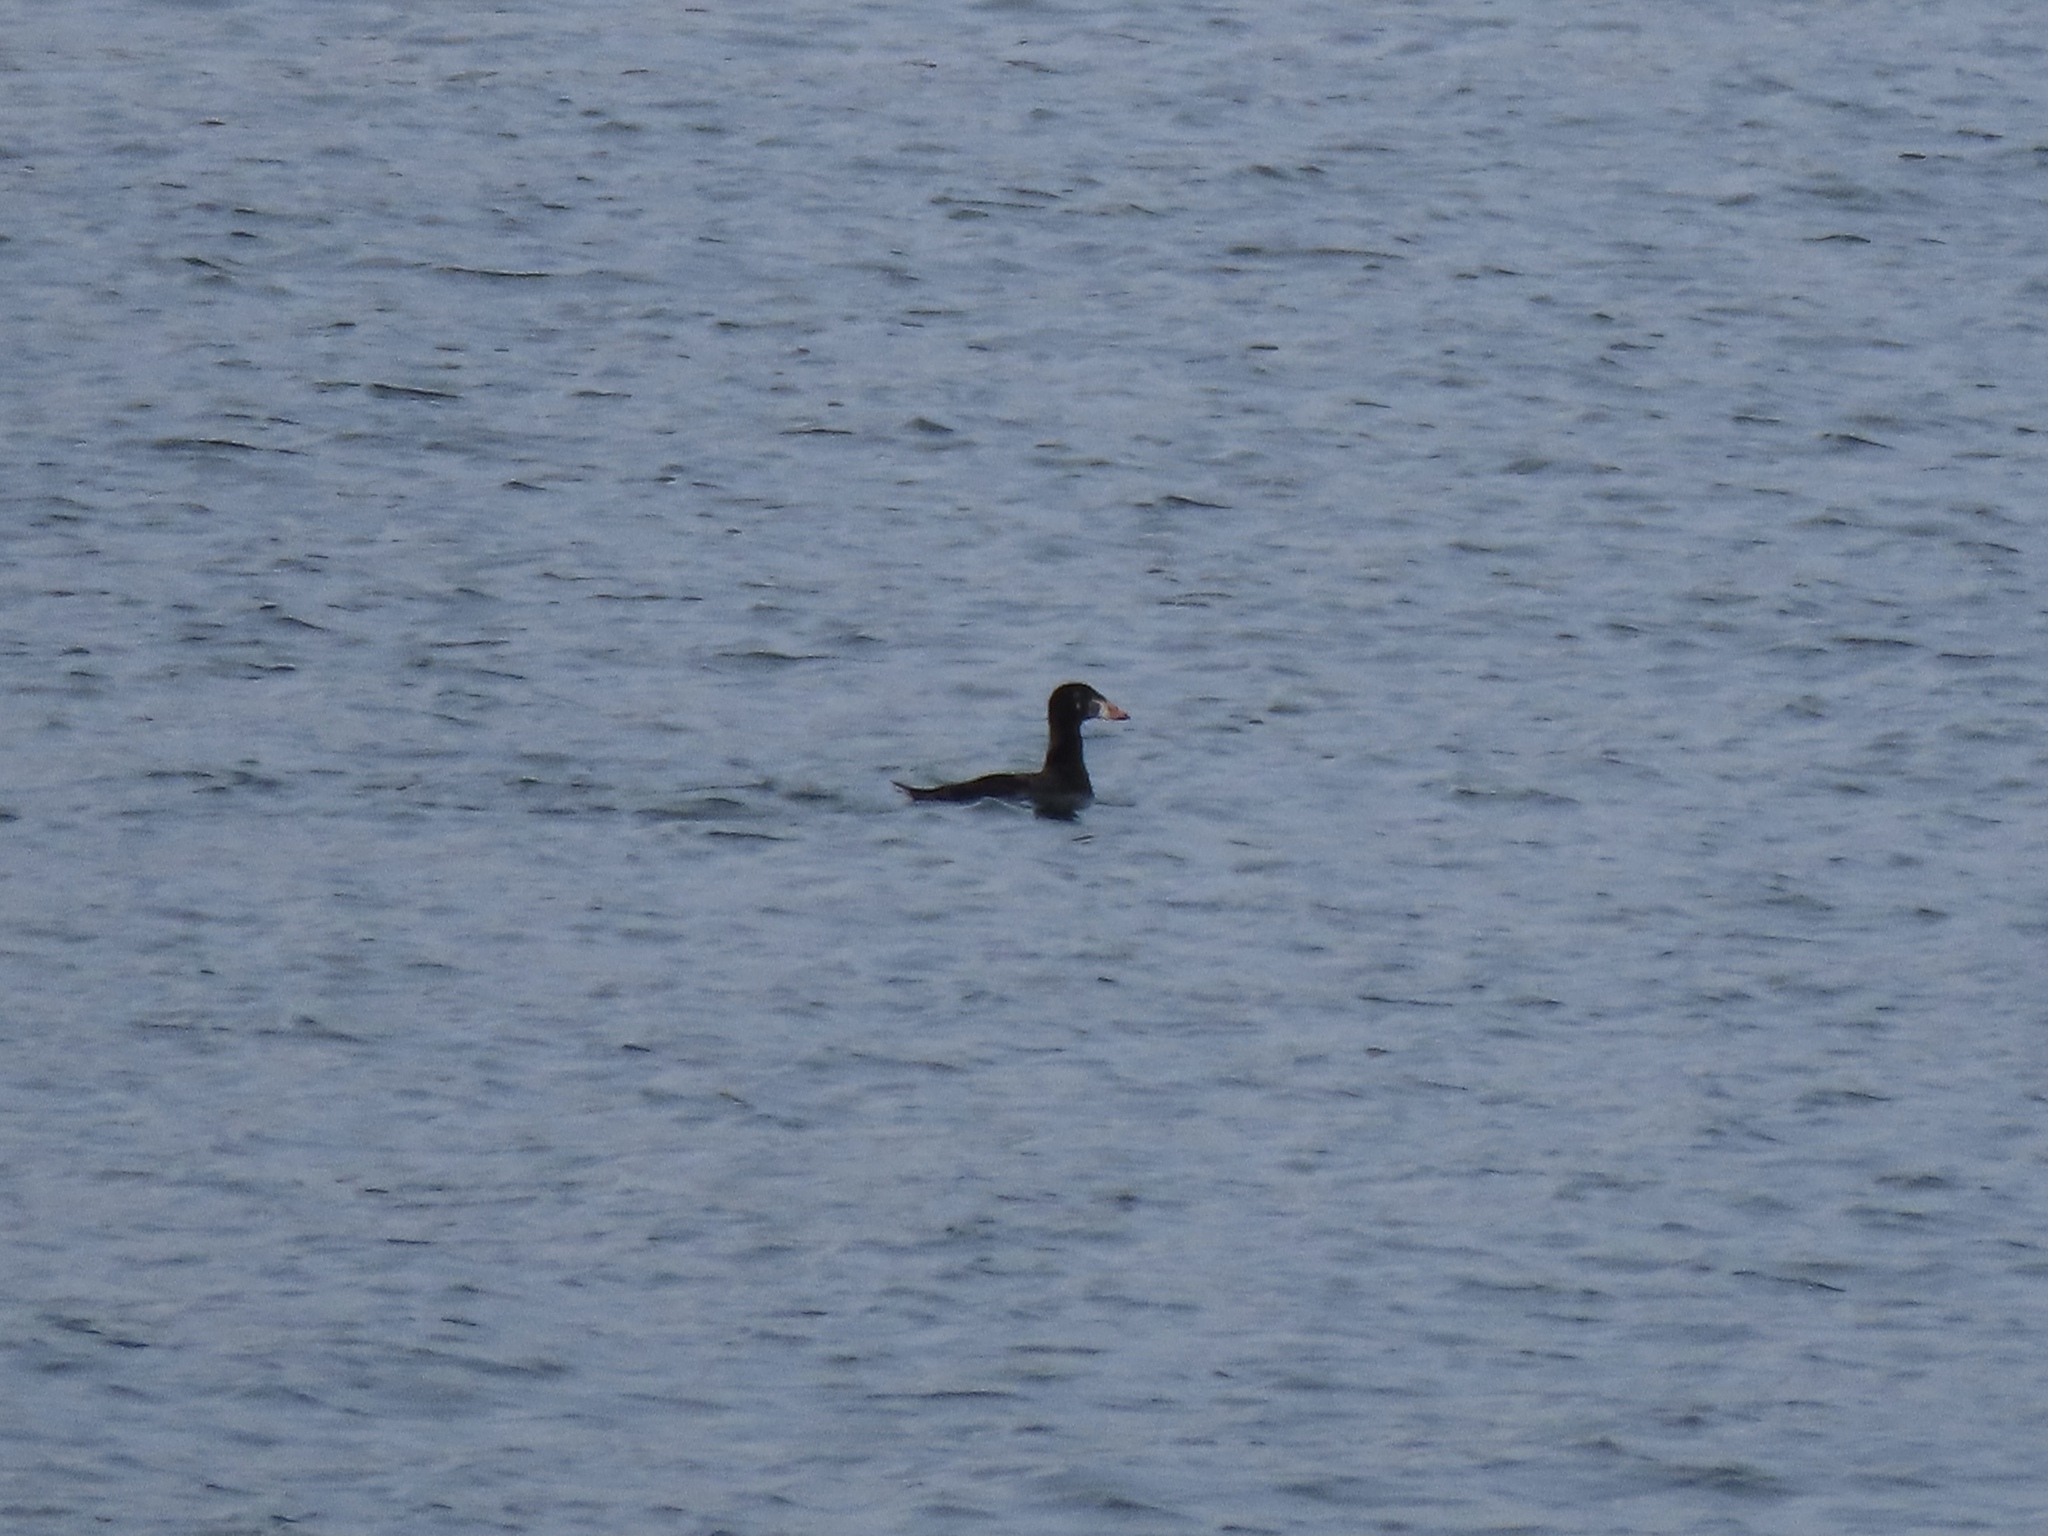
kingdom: Animalia
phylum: Chordata
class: Aves
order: Anseriformes
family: Anatidae
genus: Melanitta
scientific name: Melanitta perspicillata
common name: Surf scoter
